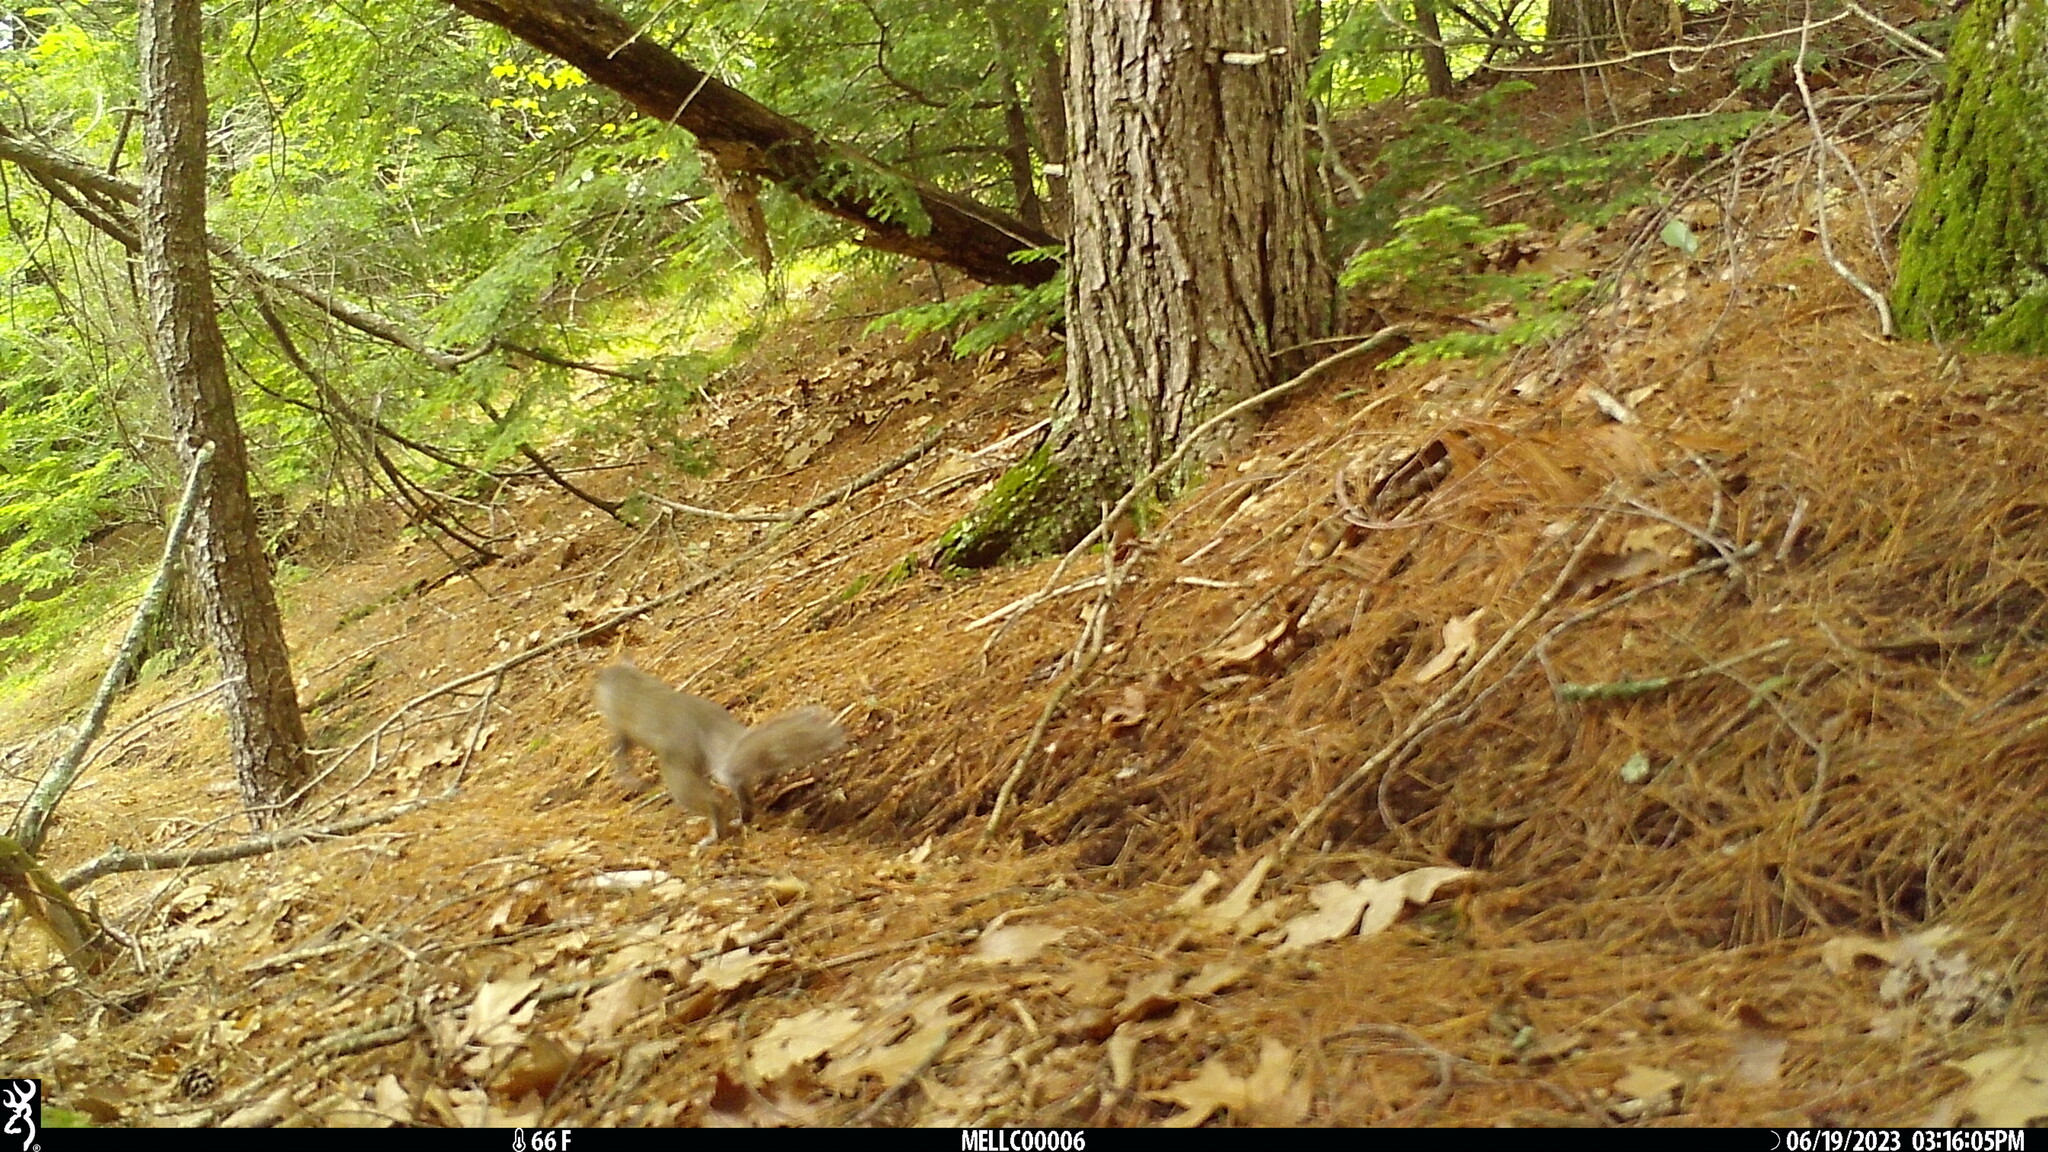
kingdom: Animalia
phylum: Chordata
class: Mammalia
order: Rodentia
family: Sciuridae
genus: Sciurus
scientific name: Sciurus carolinensis
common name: Eastern gray squirrel
